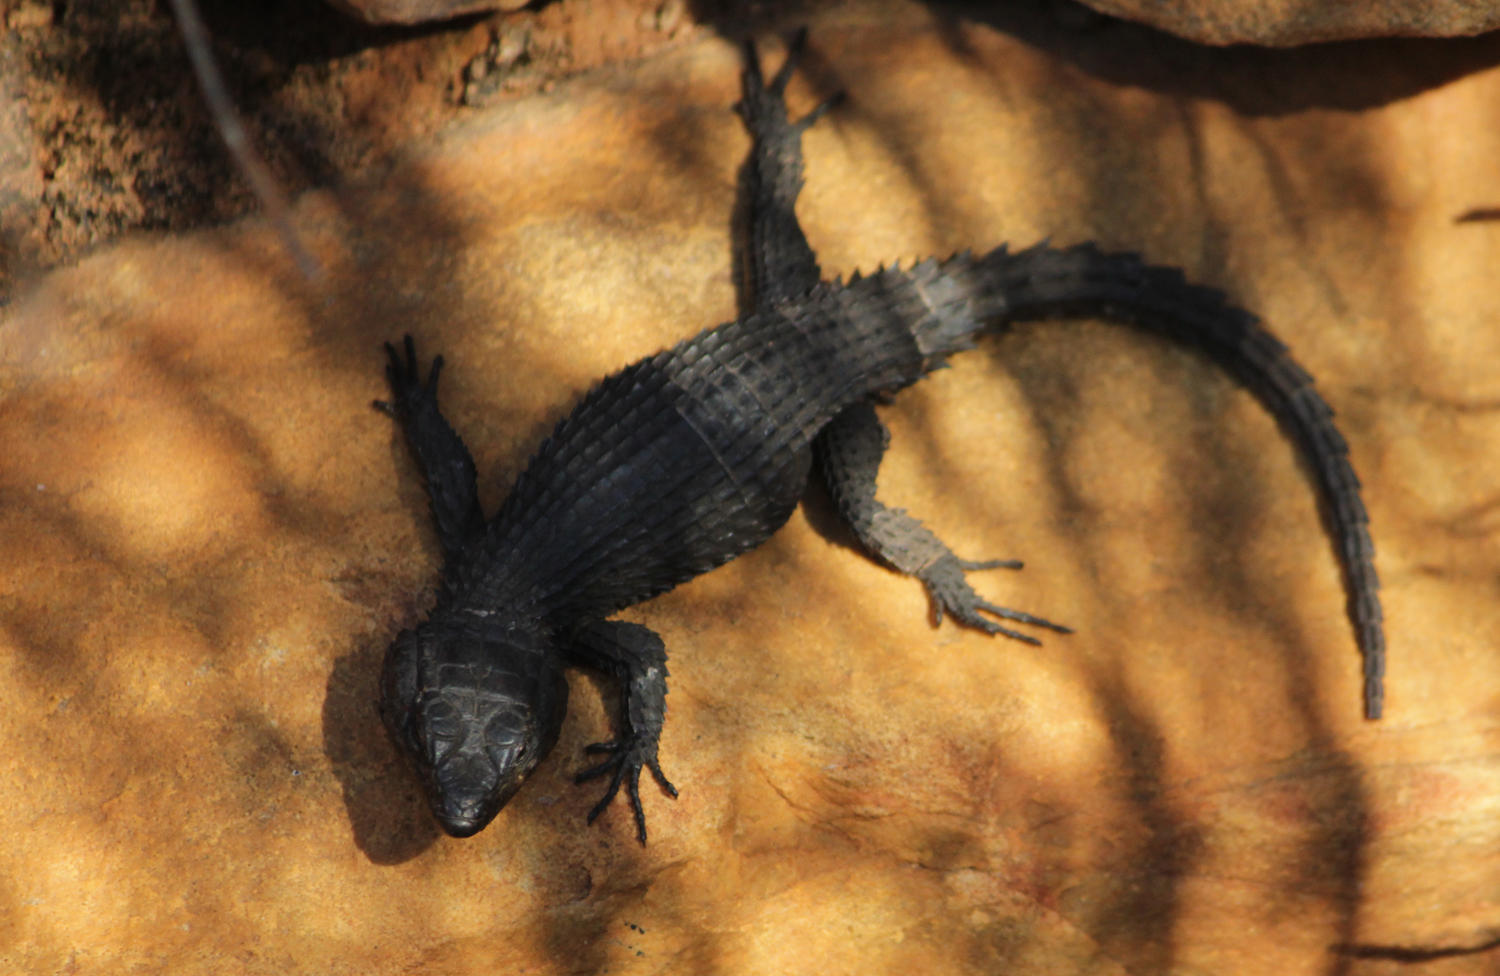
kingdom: Animalia
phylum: Chordata
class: Squamata
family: Cordylidae
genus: Cordylus
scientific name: Cordylus niger
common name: Black girdled lizard
